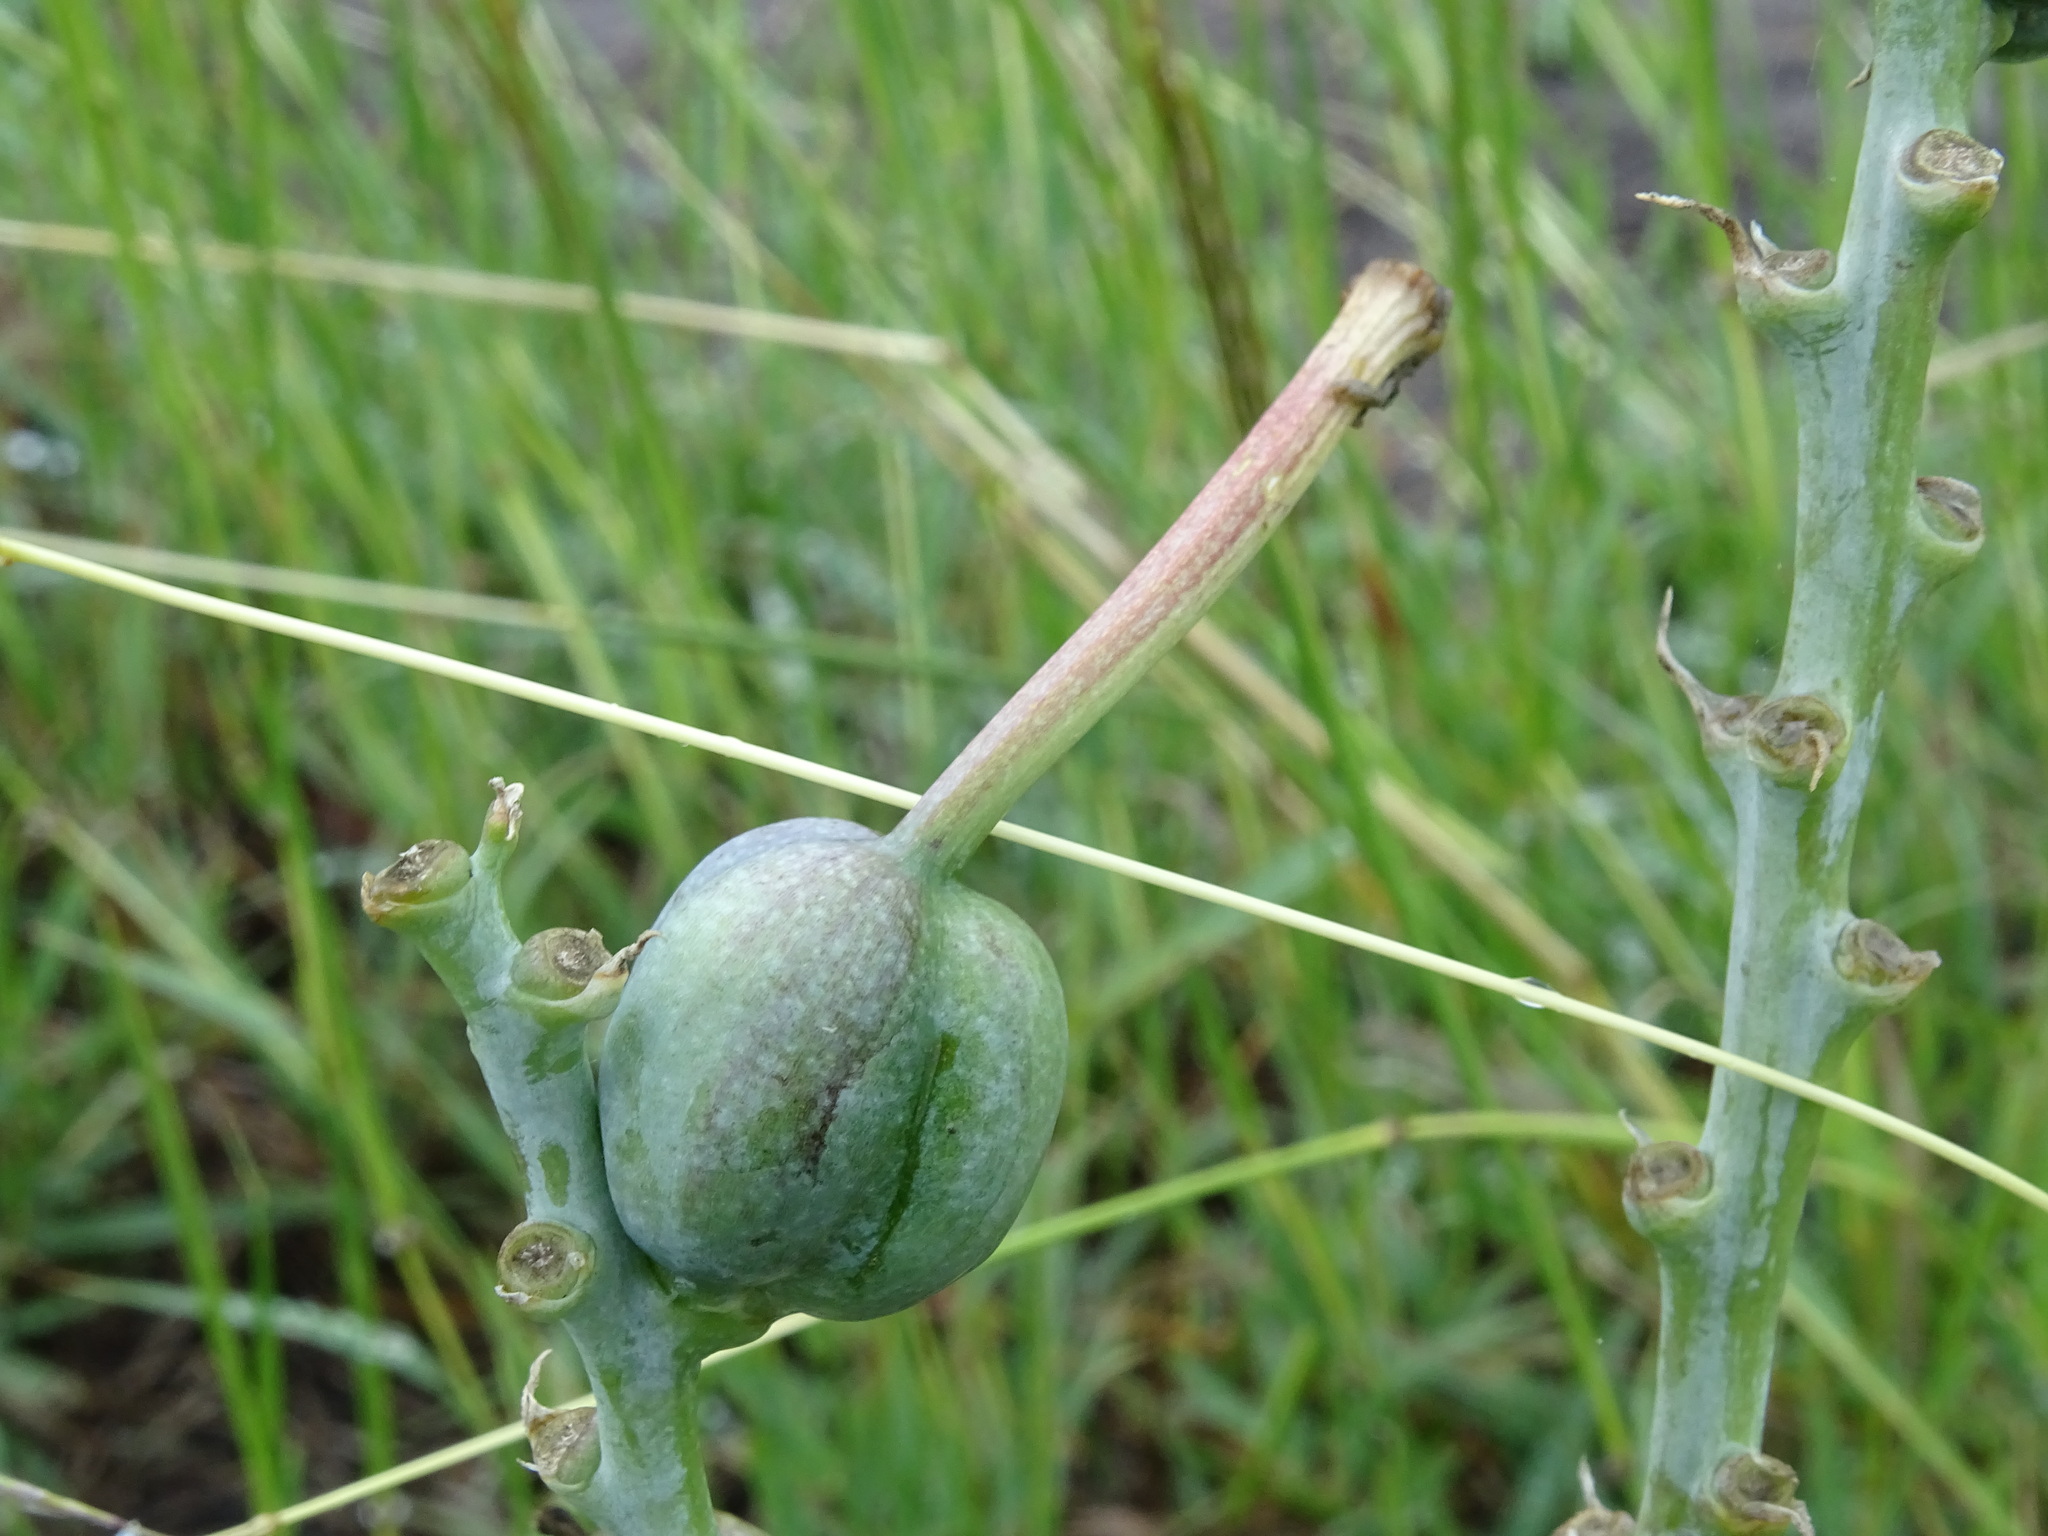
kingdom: Plantae
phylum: Tracheophyta
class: Liliopsida
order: Asparagales
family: Asparagaceae
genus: Agave
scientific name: Agave longiflora
